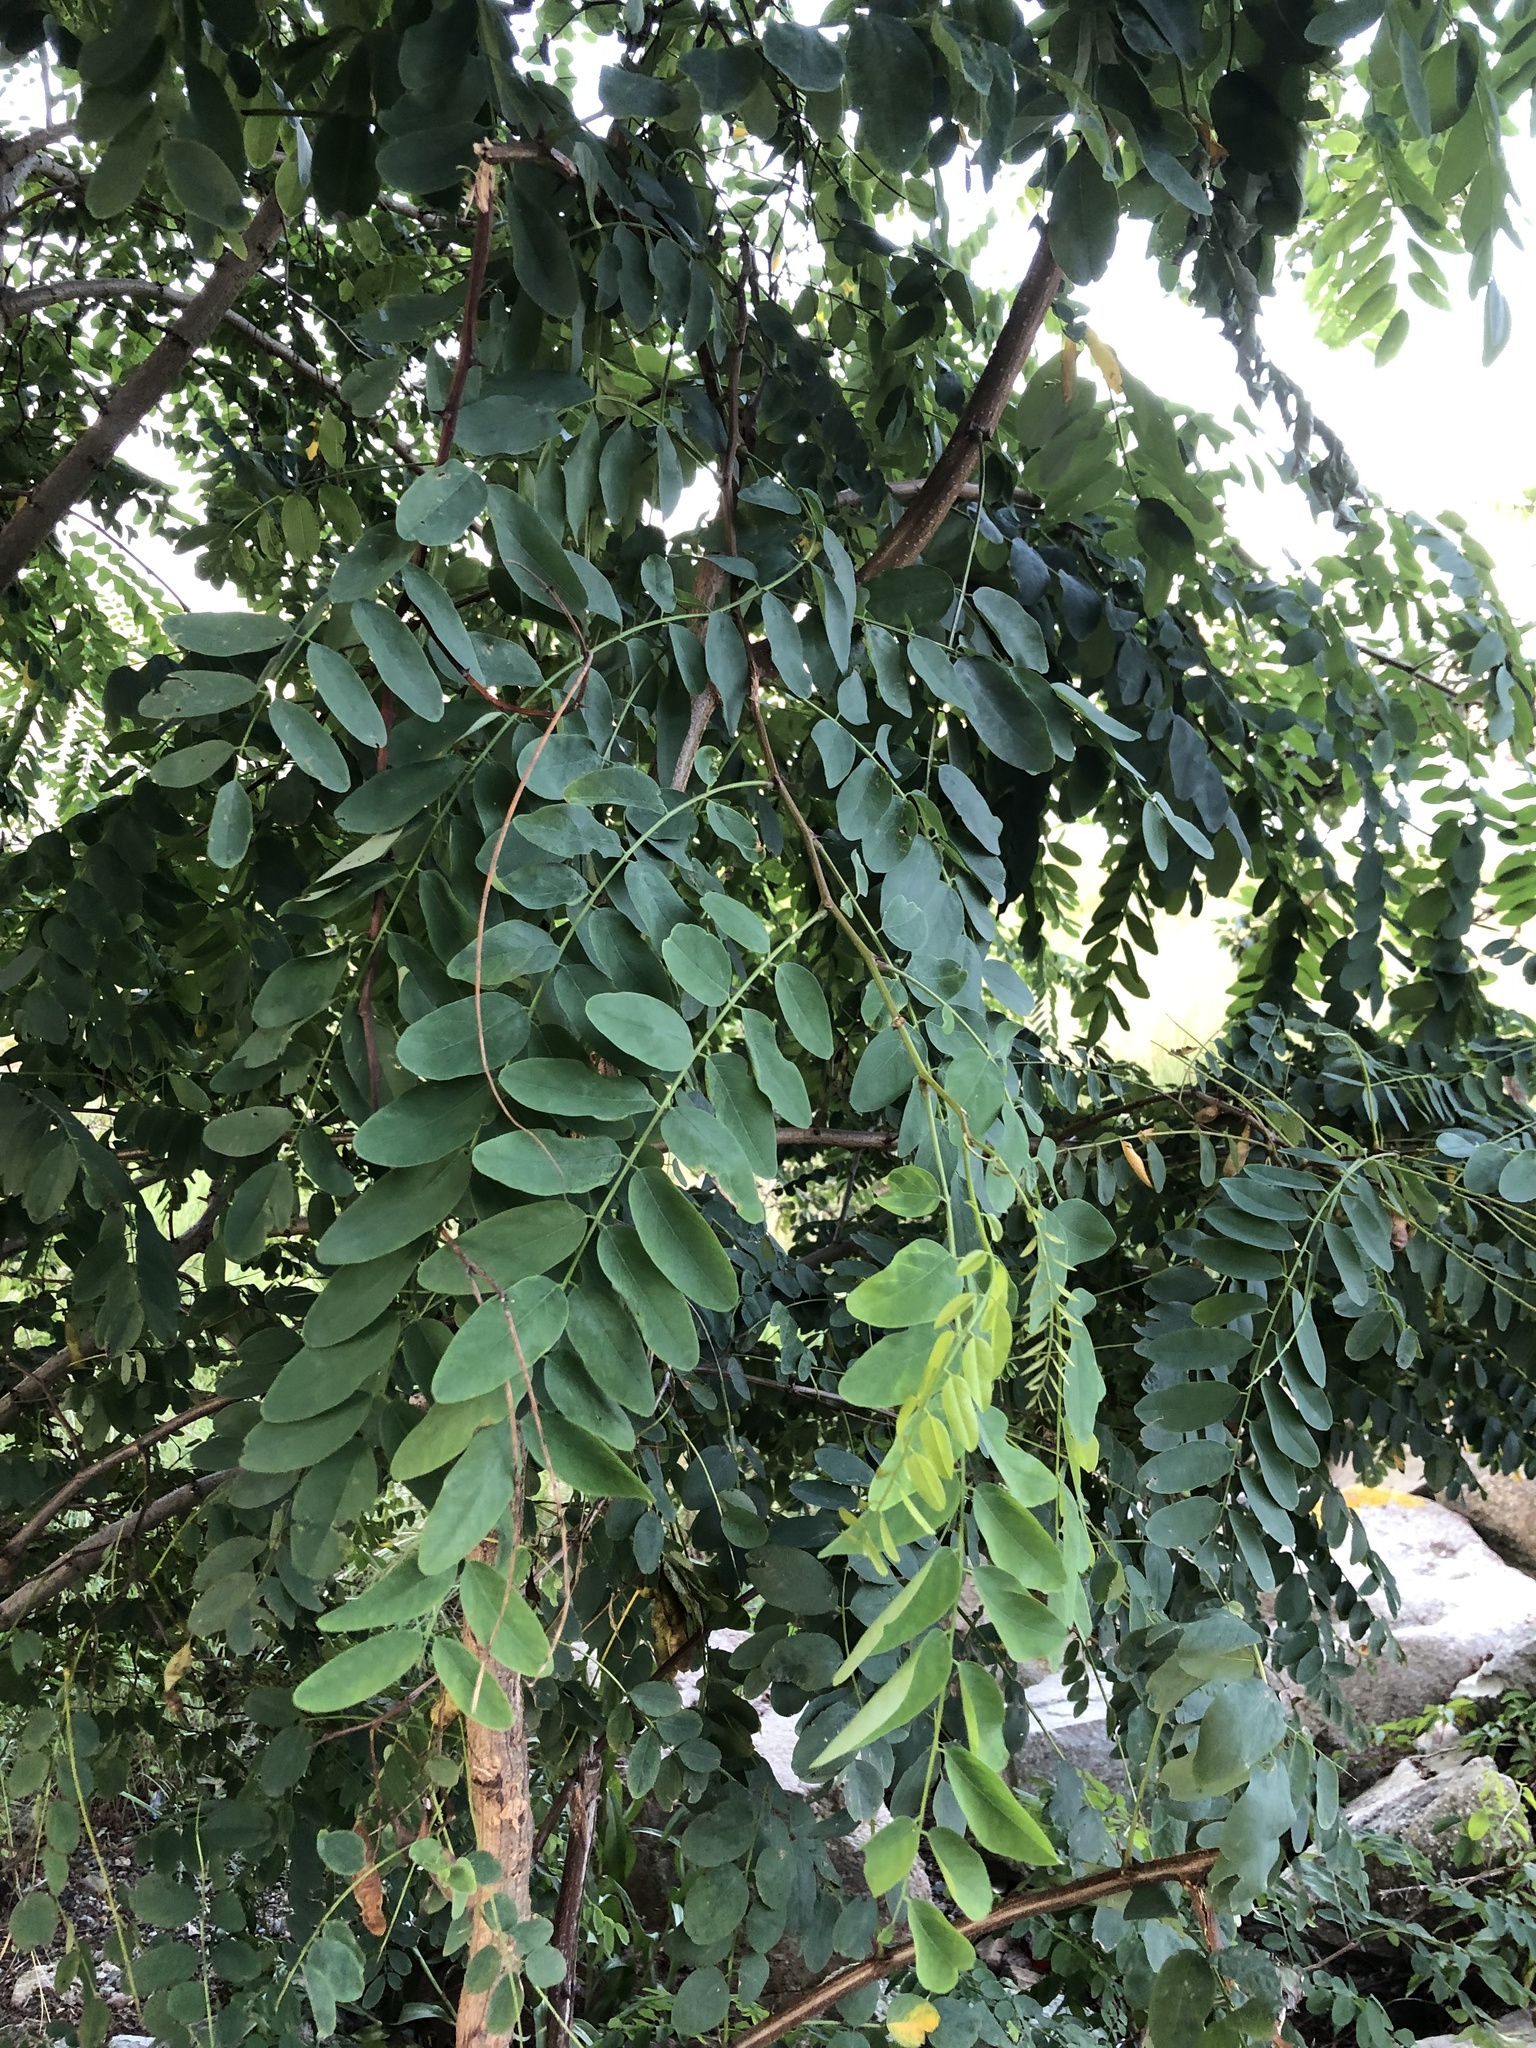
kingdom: Plantae
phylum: Tracheophyta
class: Magnoliopsida
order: Fabales
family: Fabaceae
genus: Robinia
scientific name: Robinia pseudoacacia
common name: Black locust
